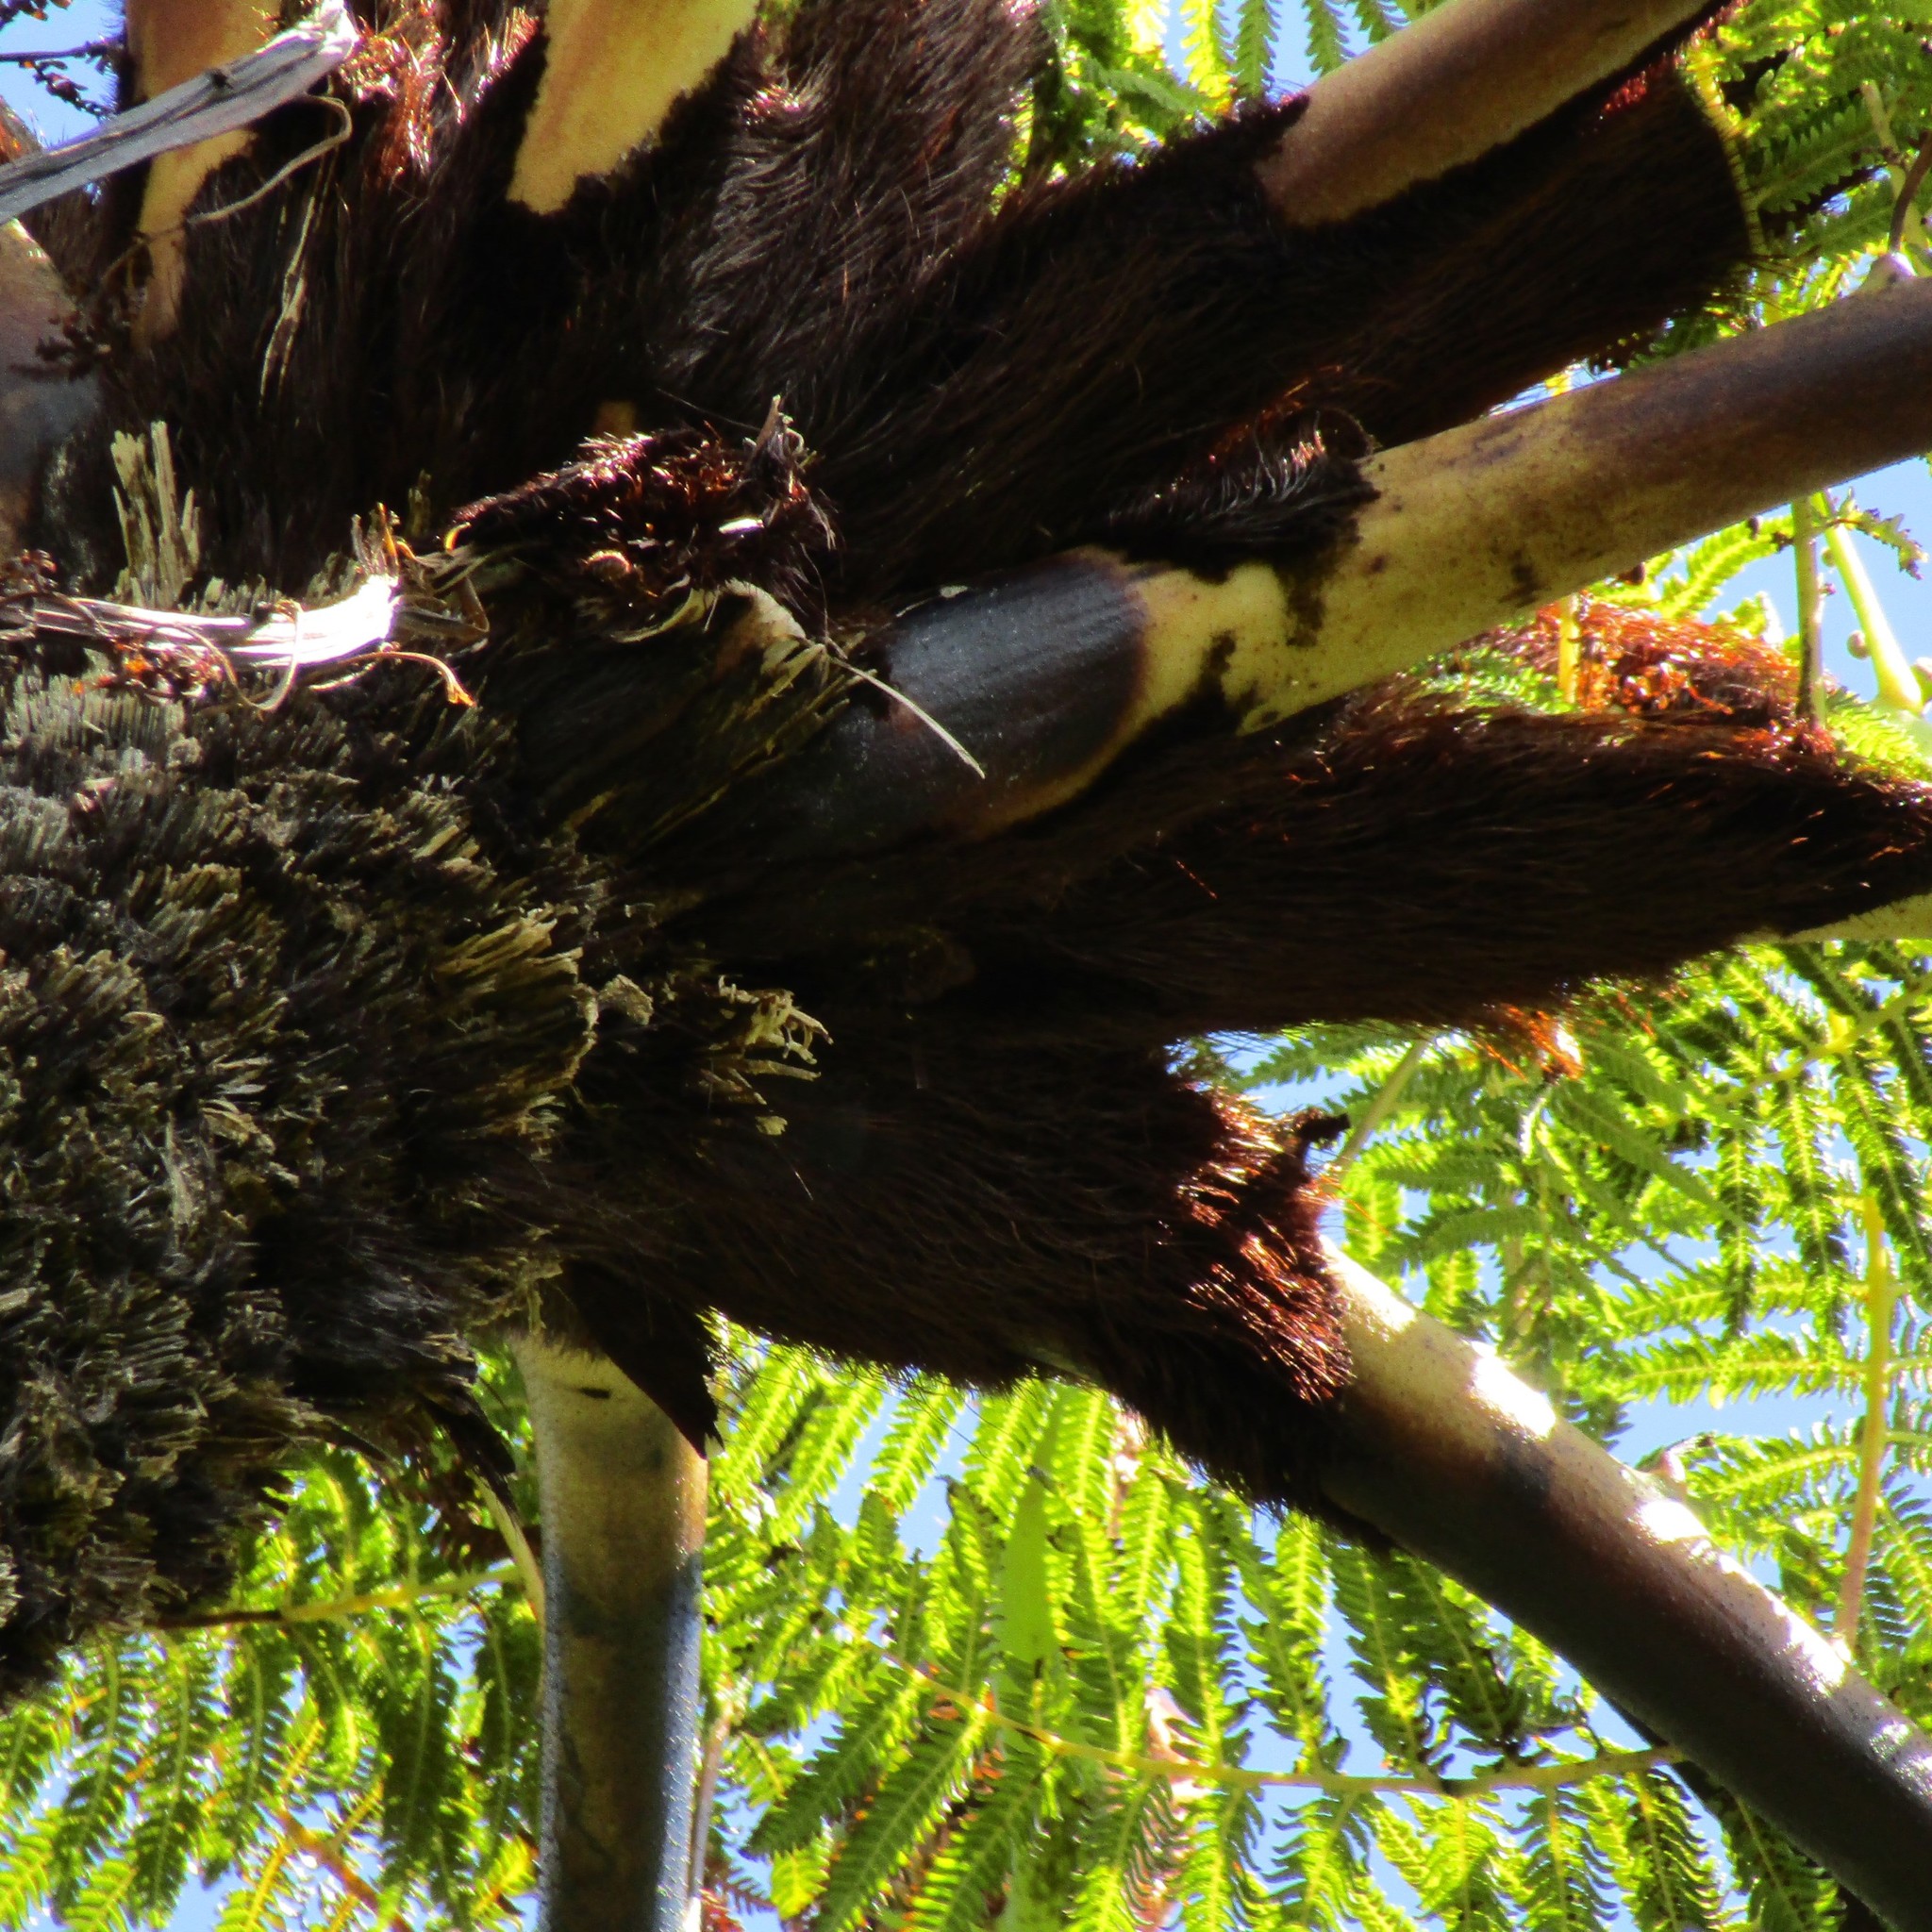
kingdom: Plantae
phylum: Tracheophyta
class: Polypodiopsida
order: Cyatheales
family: Cyatheaceae
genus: Sphaeropteris
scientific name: Sphaeropteris medullaris
